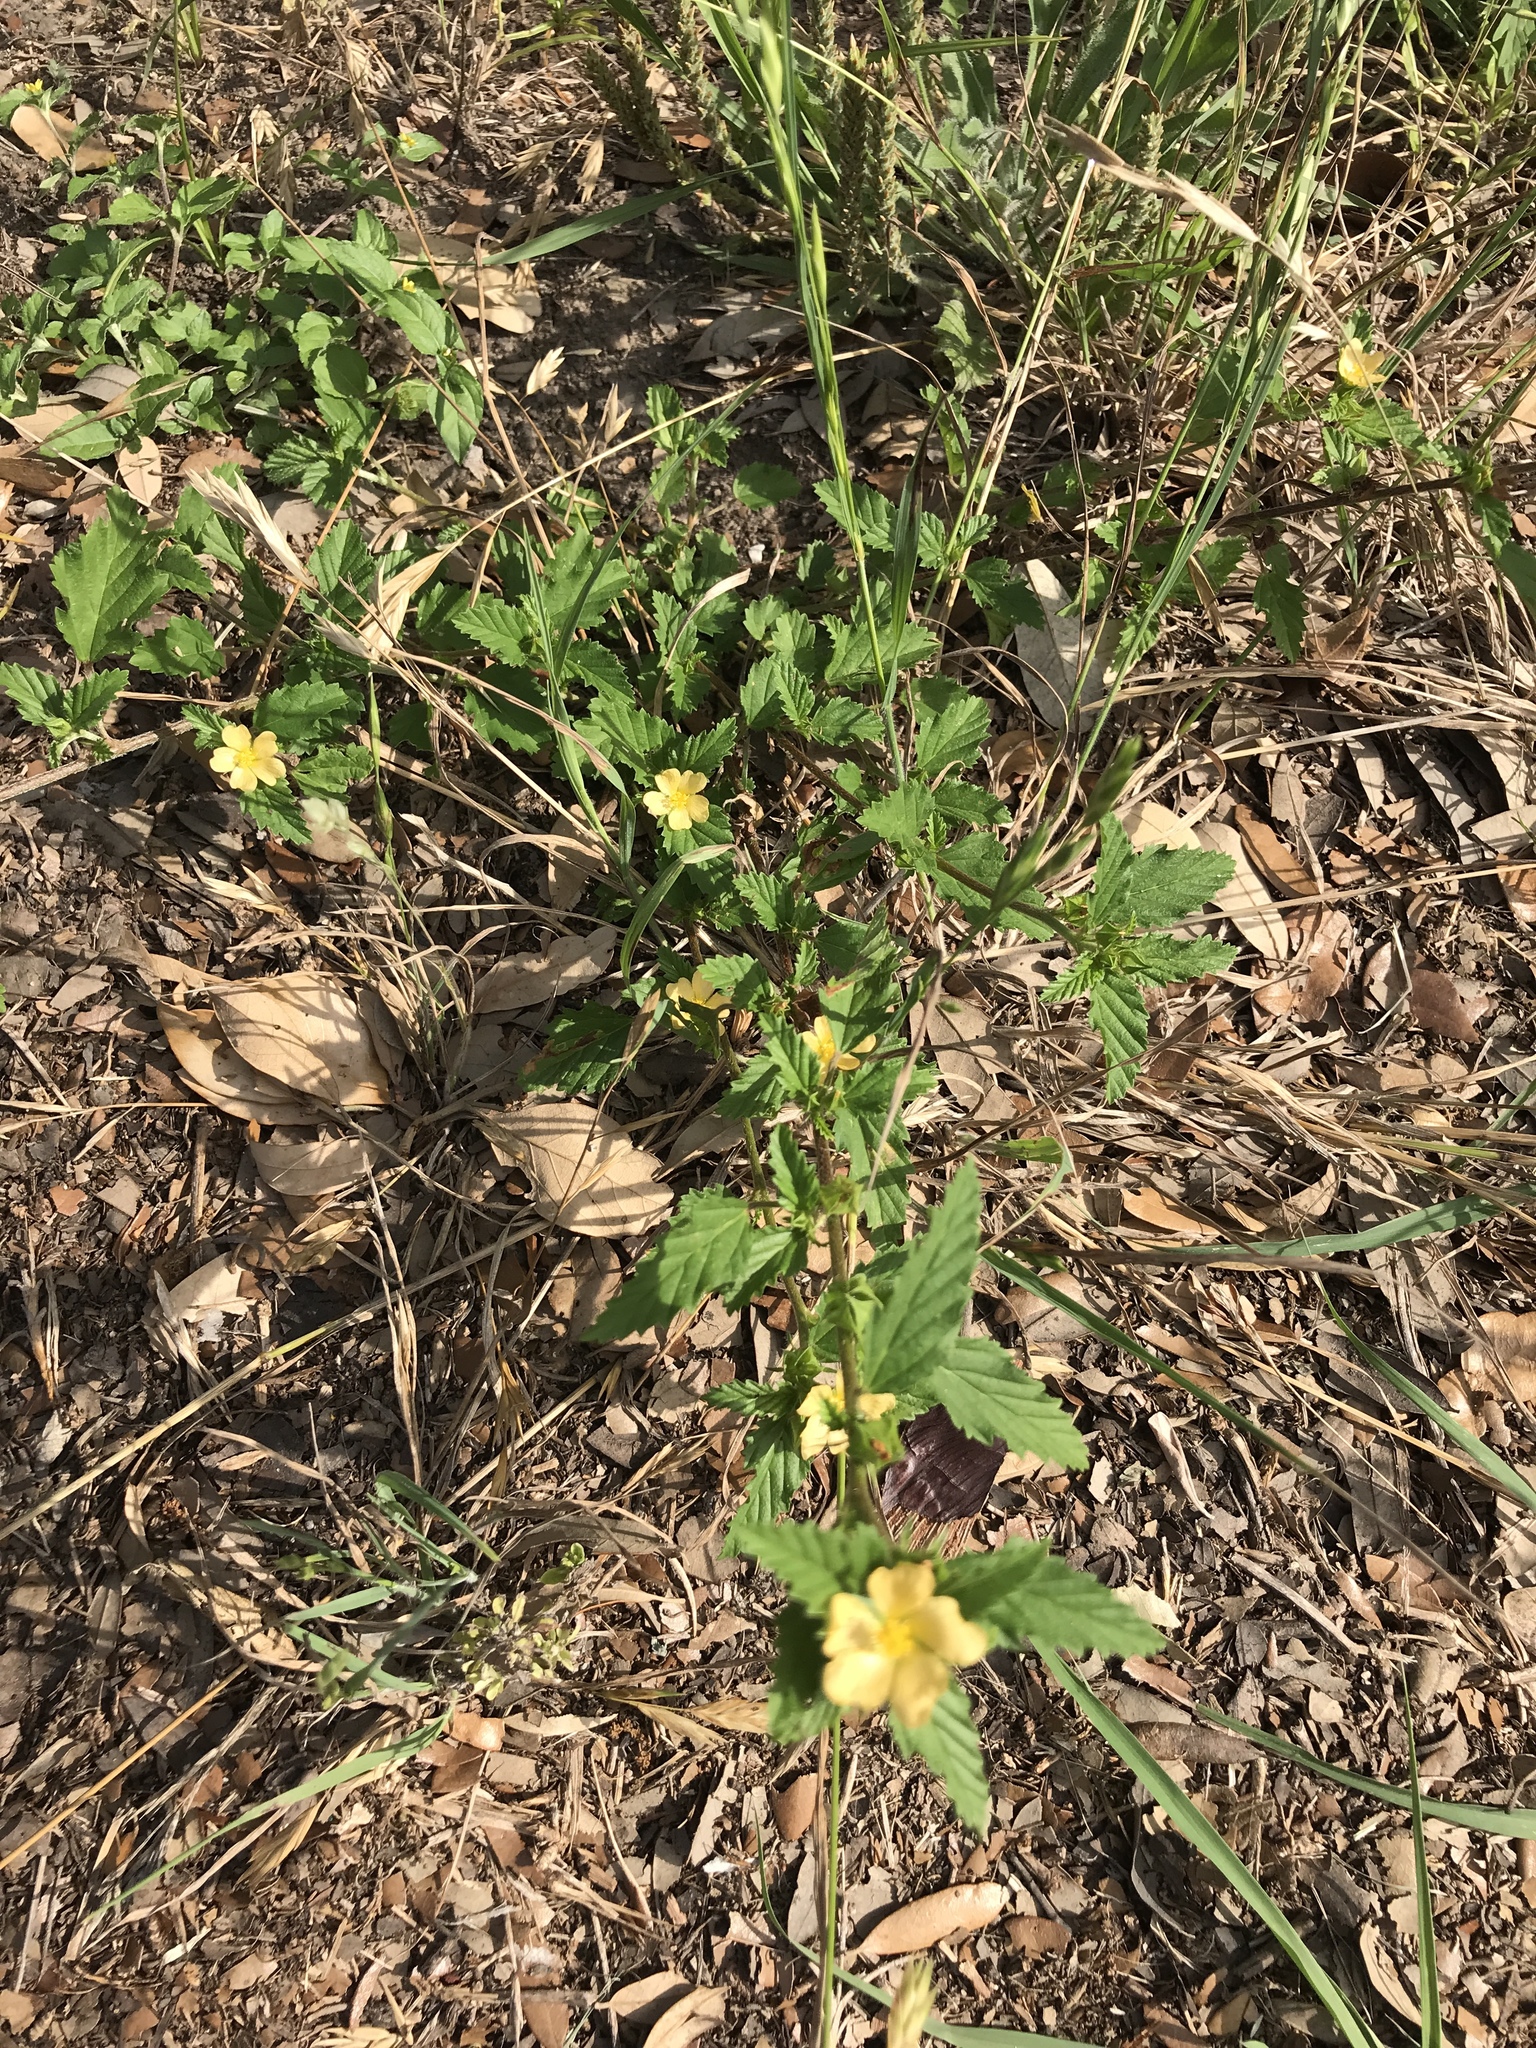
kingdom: Plantae
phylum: Tracheophyta
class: Magnoliopsida
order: Malvales
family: Malvaceae
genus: Malvastrum
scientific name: Malvastrum coromandelianum
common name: Threelobe false mallow
